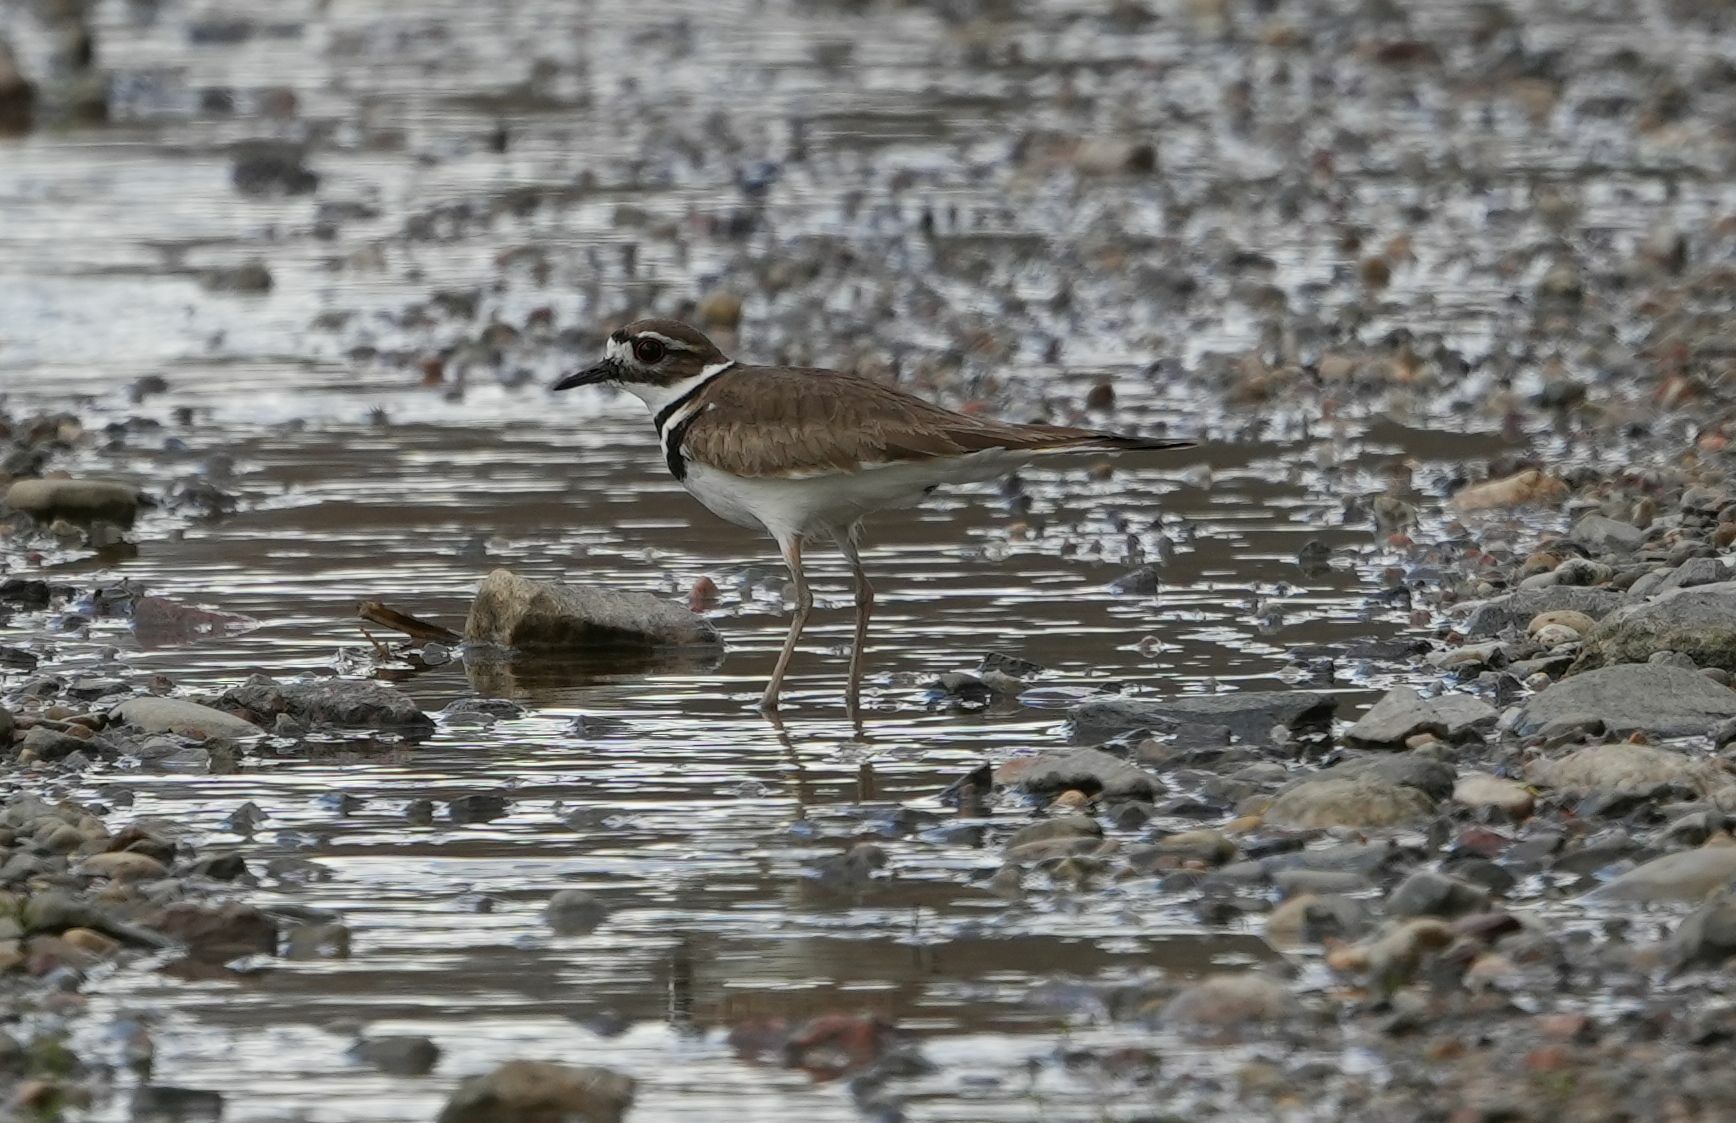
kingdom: Animalia
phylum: Chordata
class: Aves
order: Charadriiformes
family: Charadriidae
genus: Charadrius
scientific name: Charadrius vociferus
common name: Killdeer
